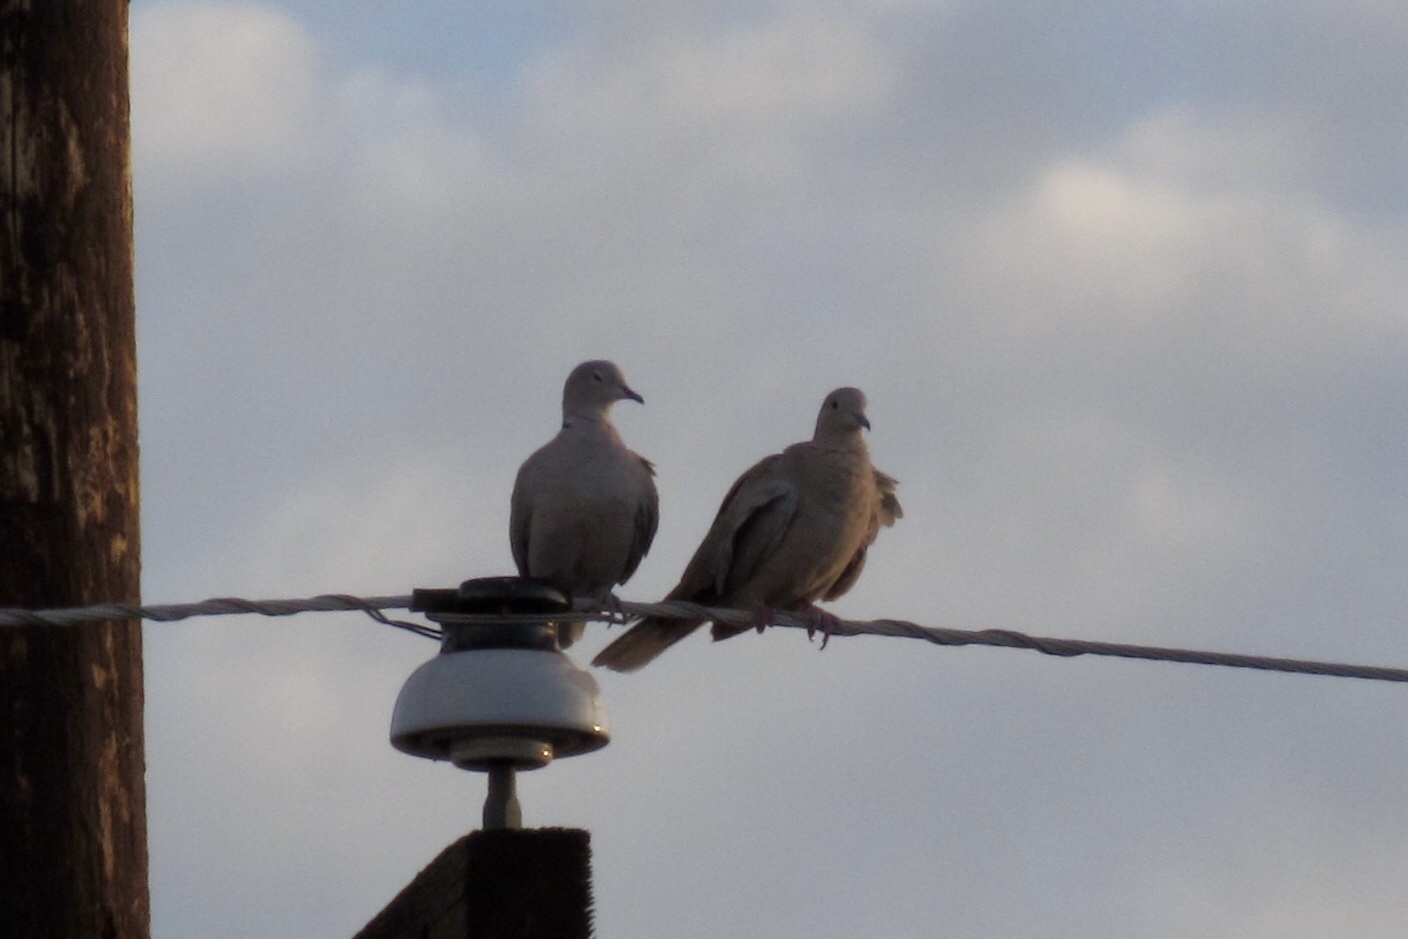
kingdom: Animalia
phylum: Chordata
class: Aves
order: Columbiformes
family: Columbidae
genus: Streptopelia
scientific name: Streptopelia decaocto
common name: Eurasian collared dove
